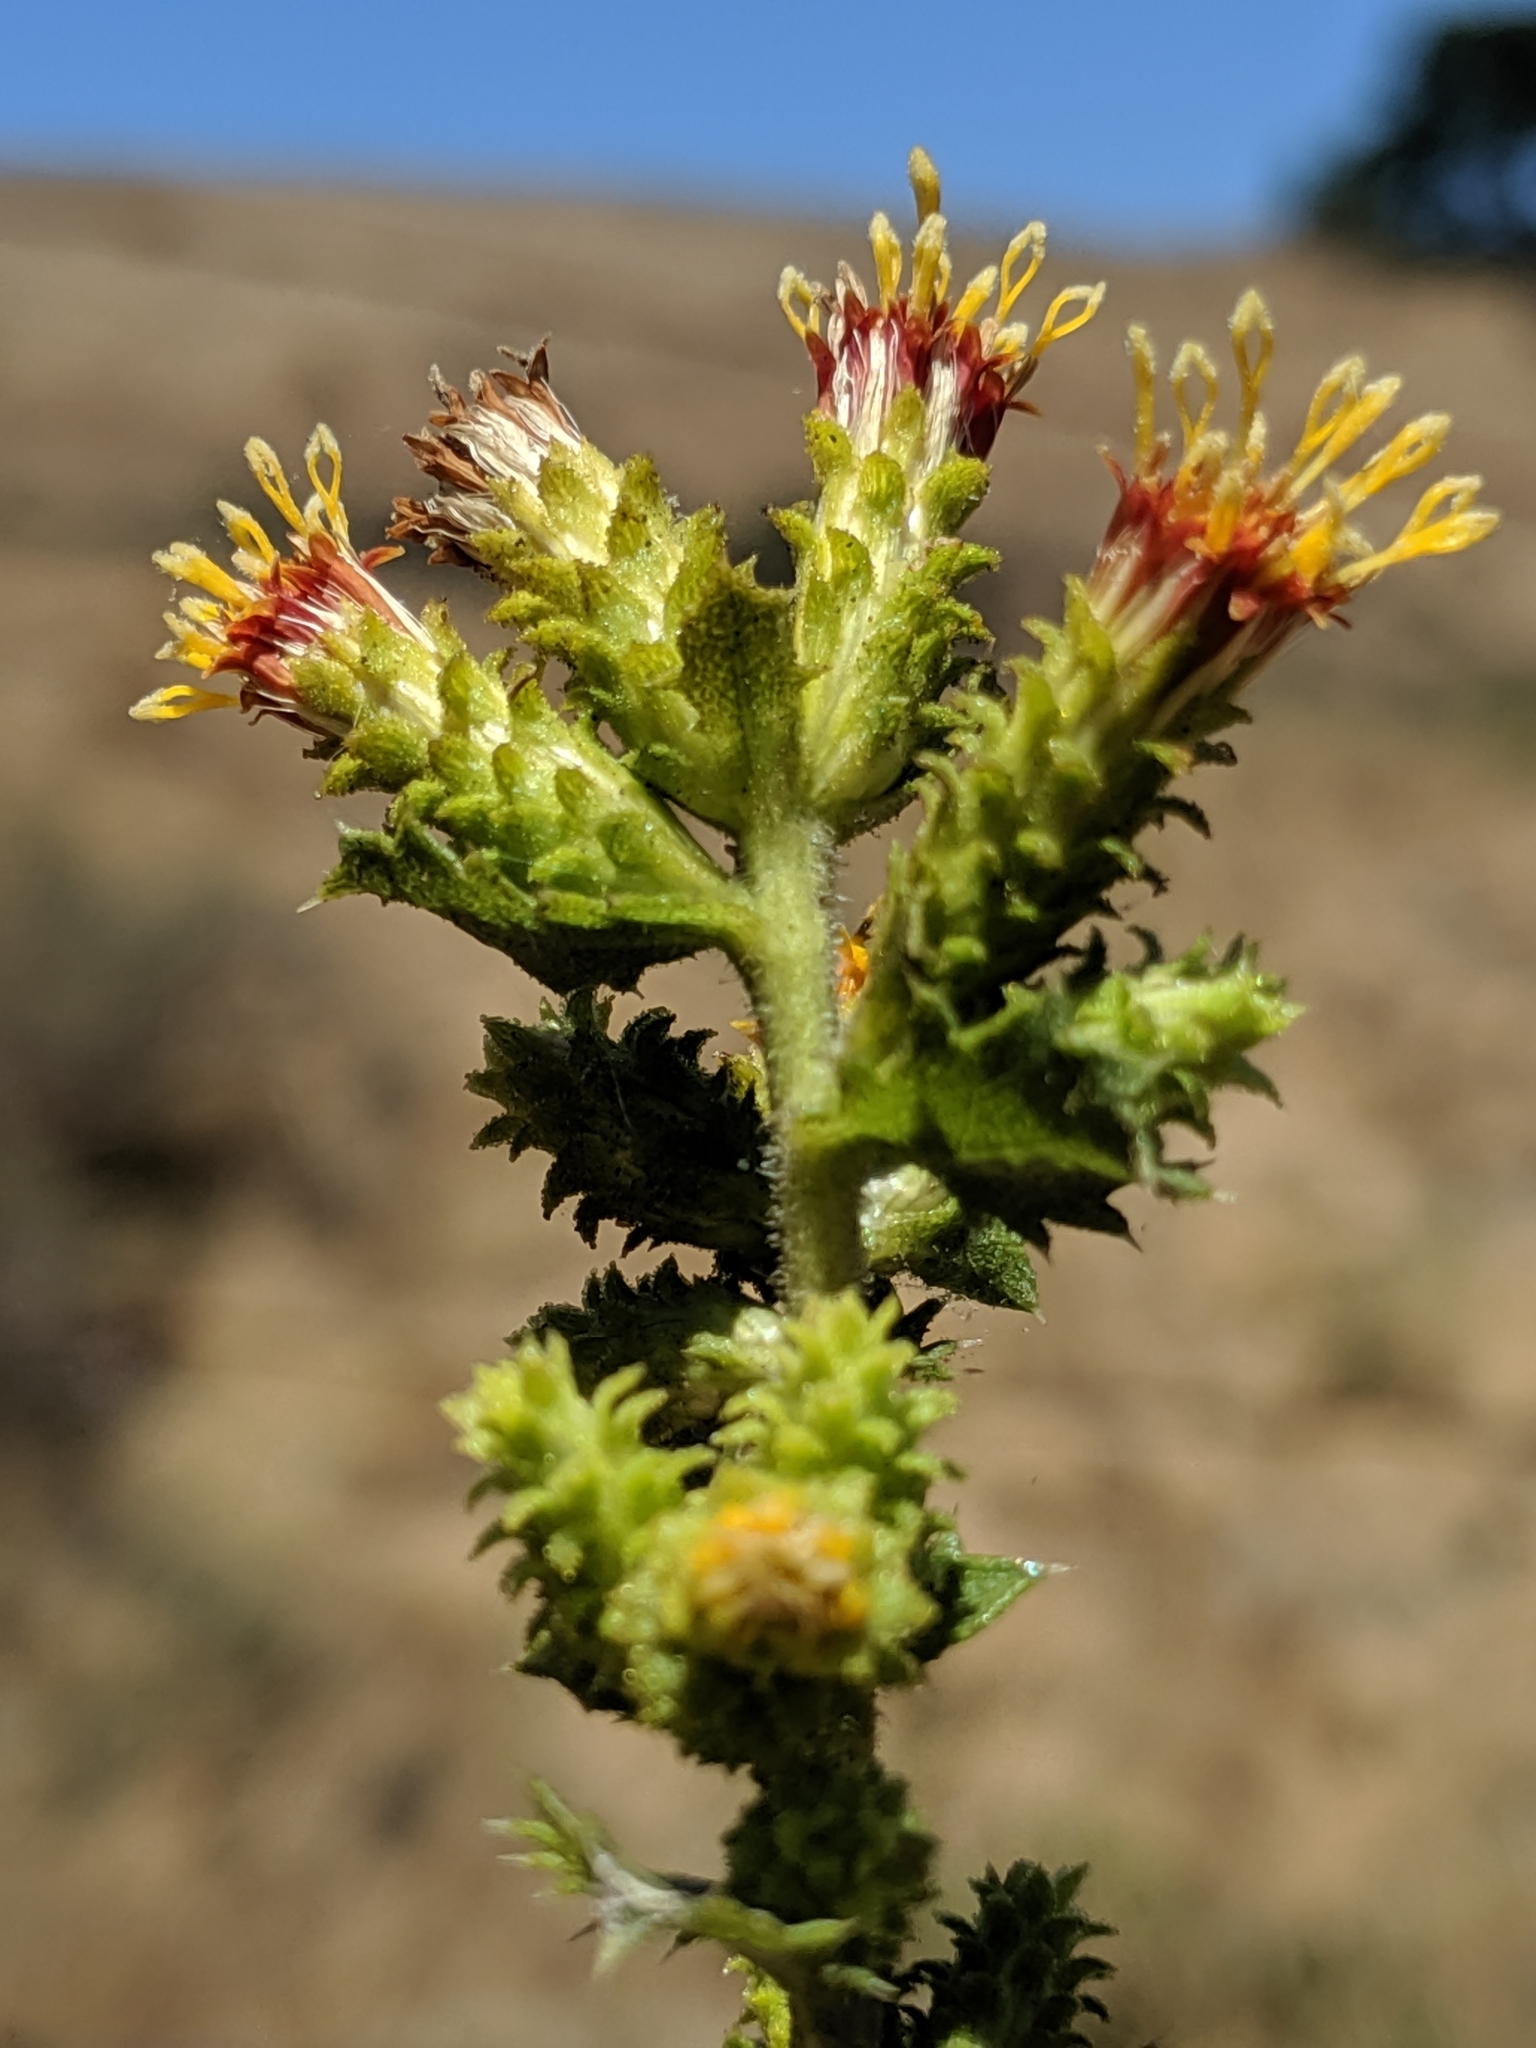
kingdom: Plantae
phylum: Tracheophyta
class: Magnoliopsida
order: Asterales
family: Asteraceae
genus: Hazardia
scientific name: Hazardia squarrosa
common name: Saw-tooth goldenbush
